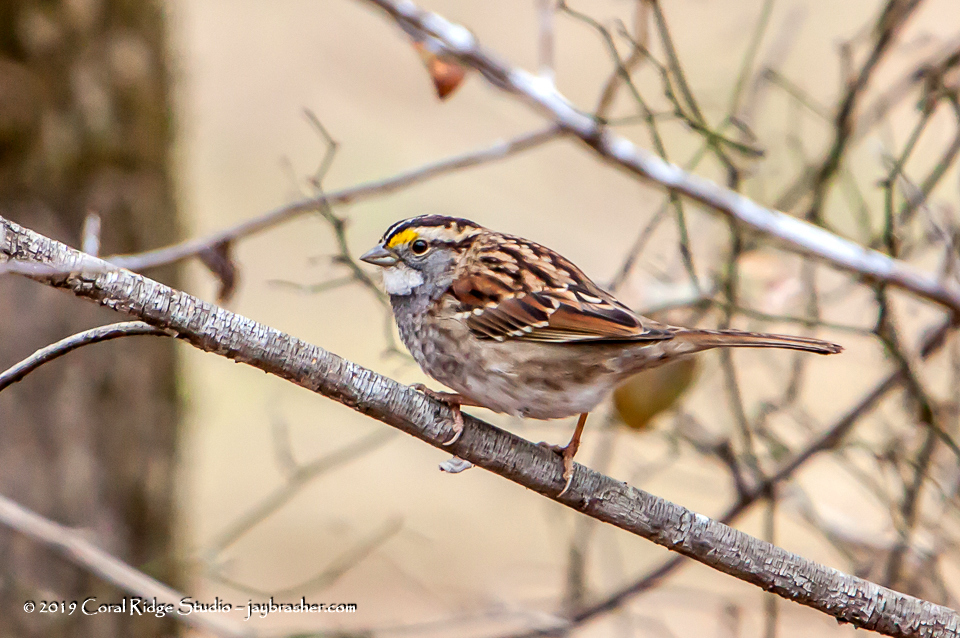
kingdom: Animalia
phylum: Chordata
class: Aves
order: Passeriformes
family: Passerellidae
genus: Zonotrichia
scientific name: Zonotrichia albicollis
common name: White-throated sparrow
